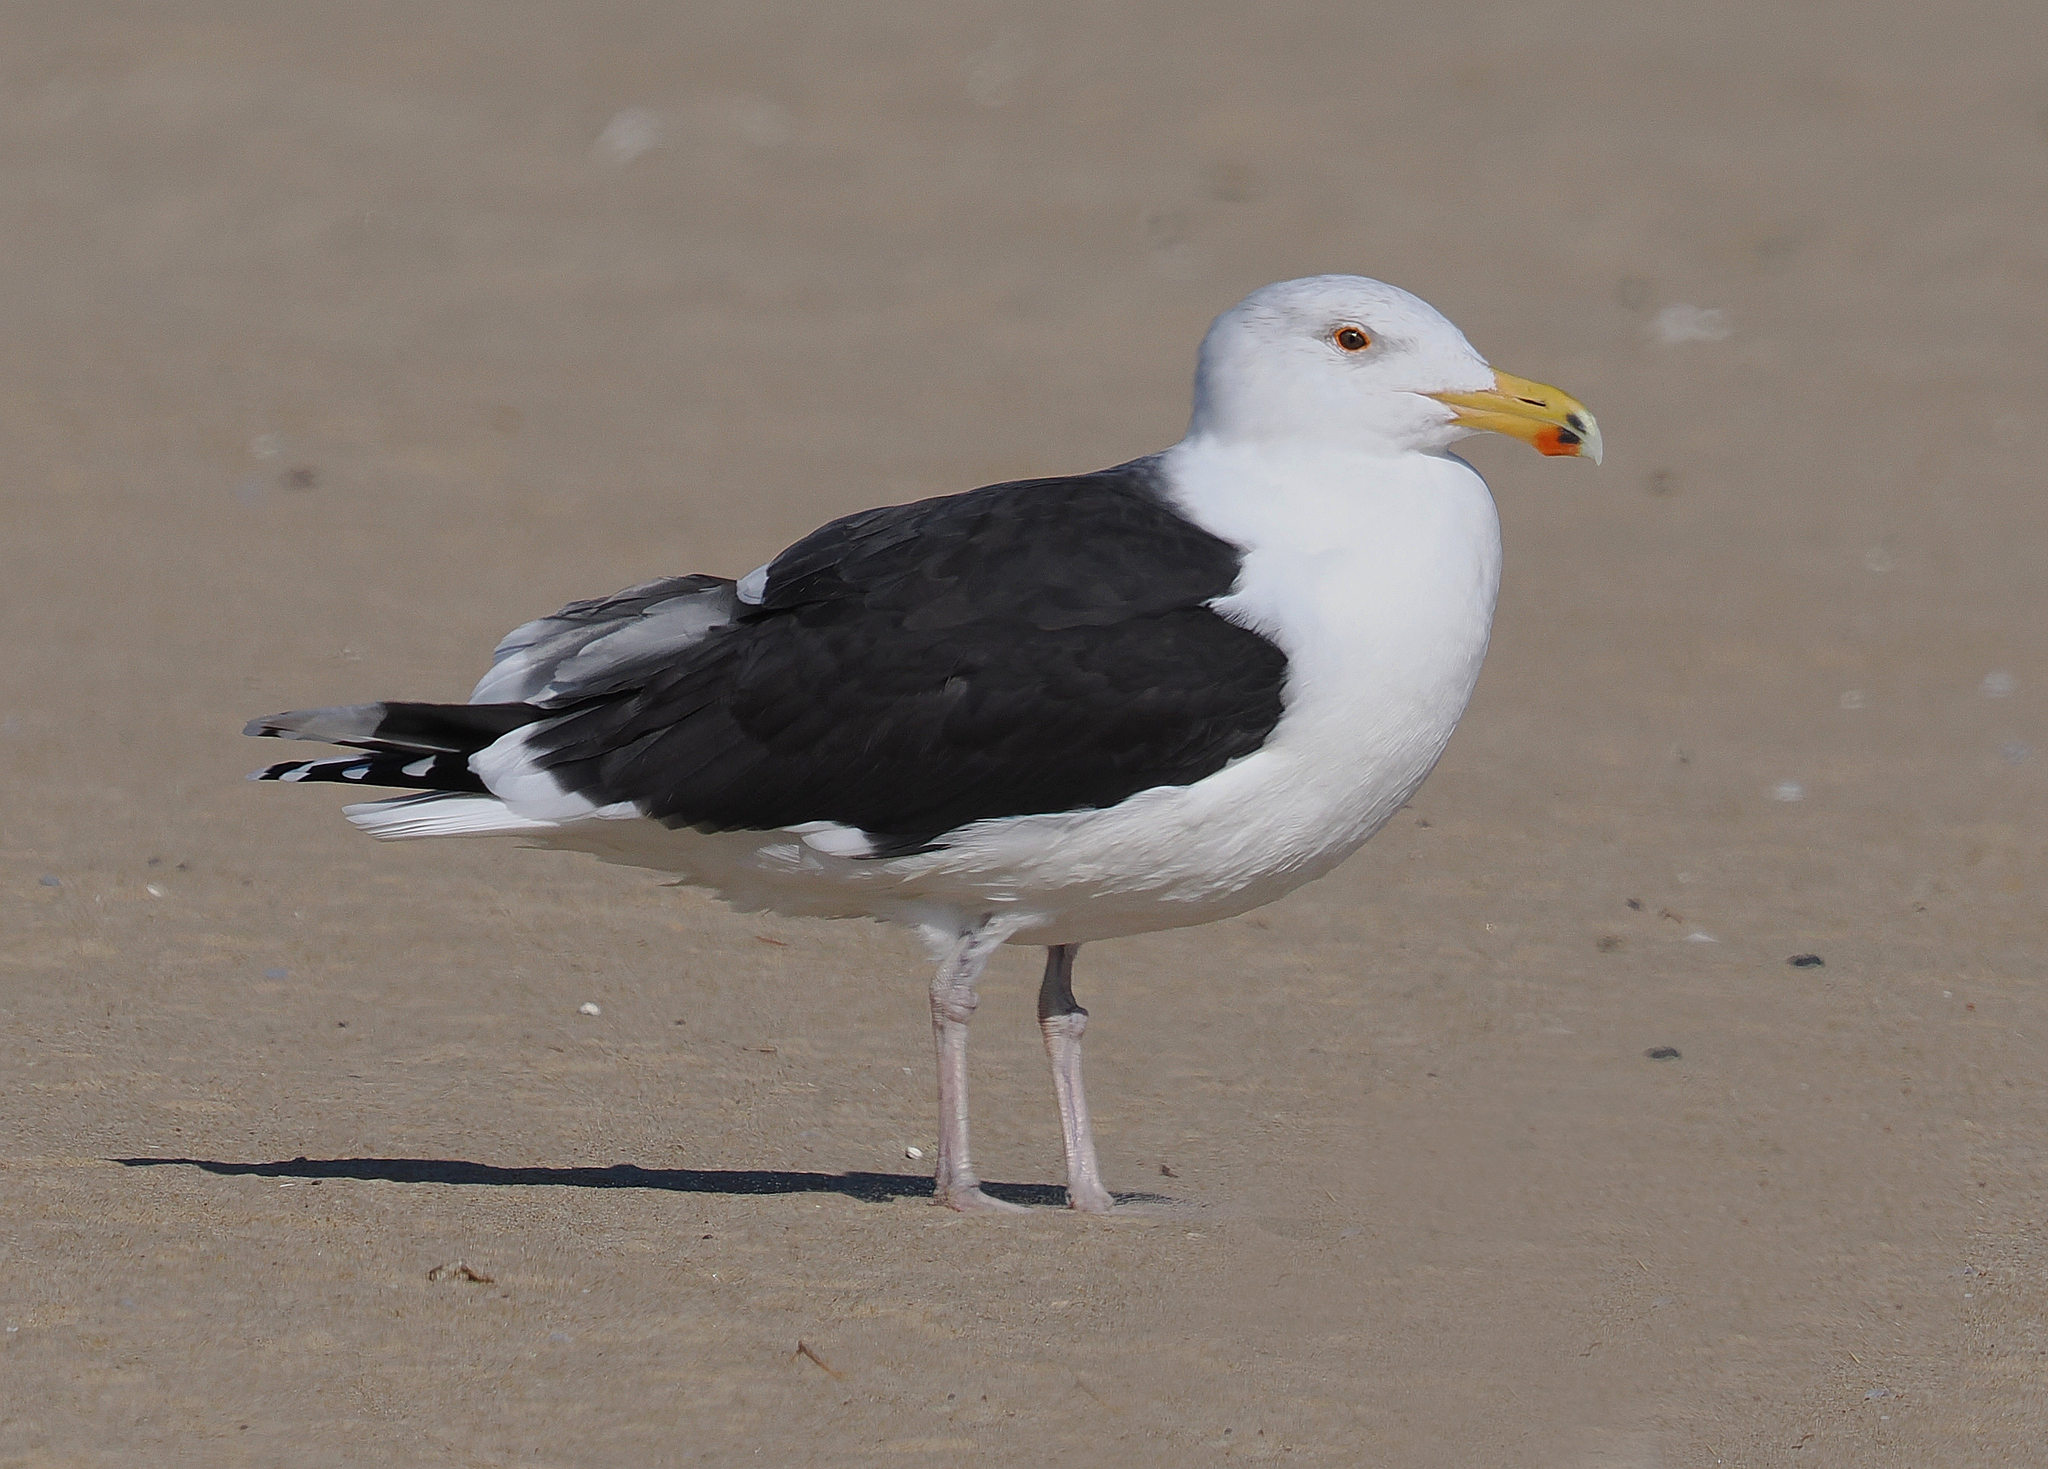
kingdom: Animalia
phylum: Chordata
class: Aves
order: Charadriiformes
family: Laridae
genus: Larus
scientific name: Larus marinus
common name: Great black-backed gull
